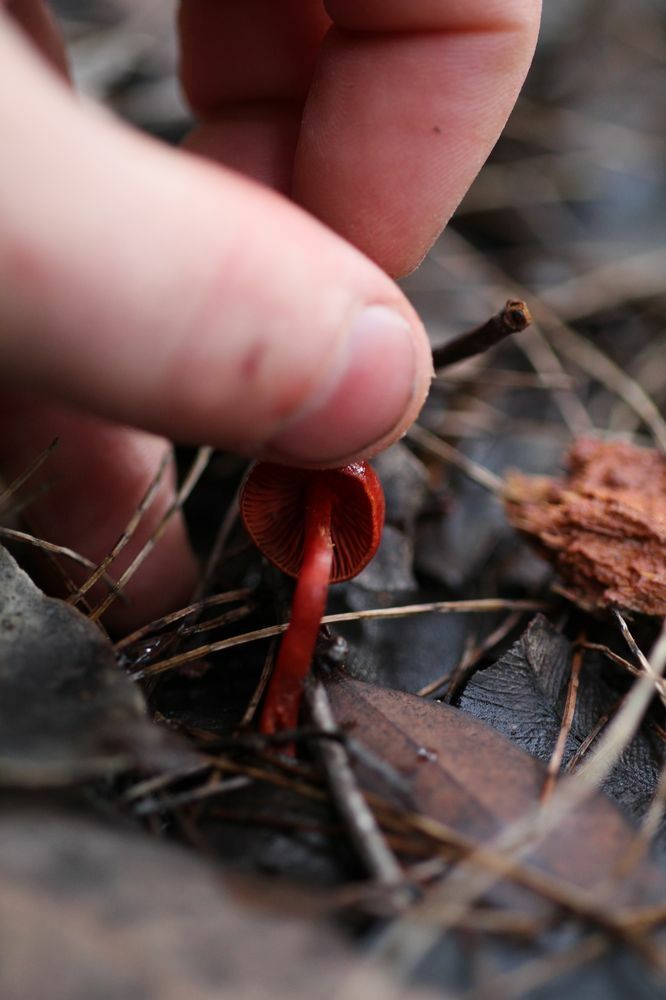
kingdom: Fungi
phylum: Basidiomycota
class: Agaricomycetes
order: Agaricales
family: Cortinariaceae
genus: Cortinarius
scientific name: Cortinarius erythrocephalus
